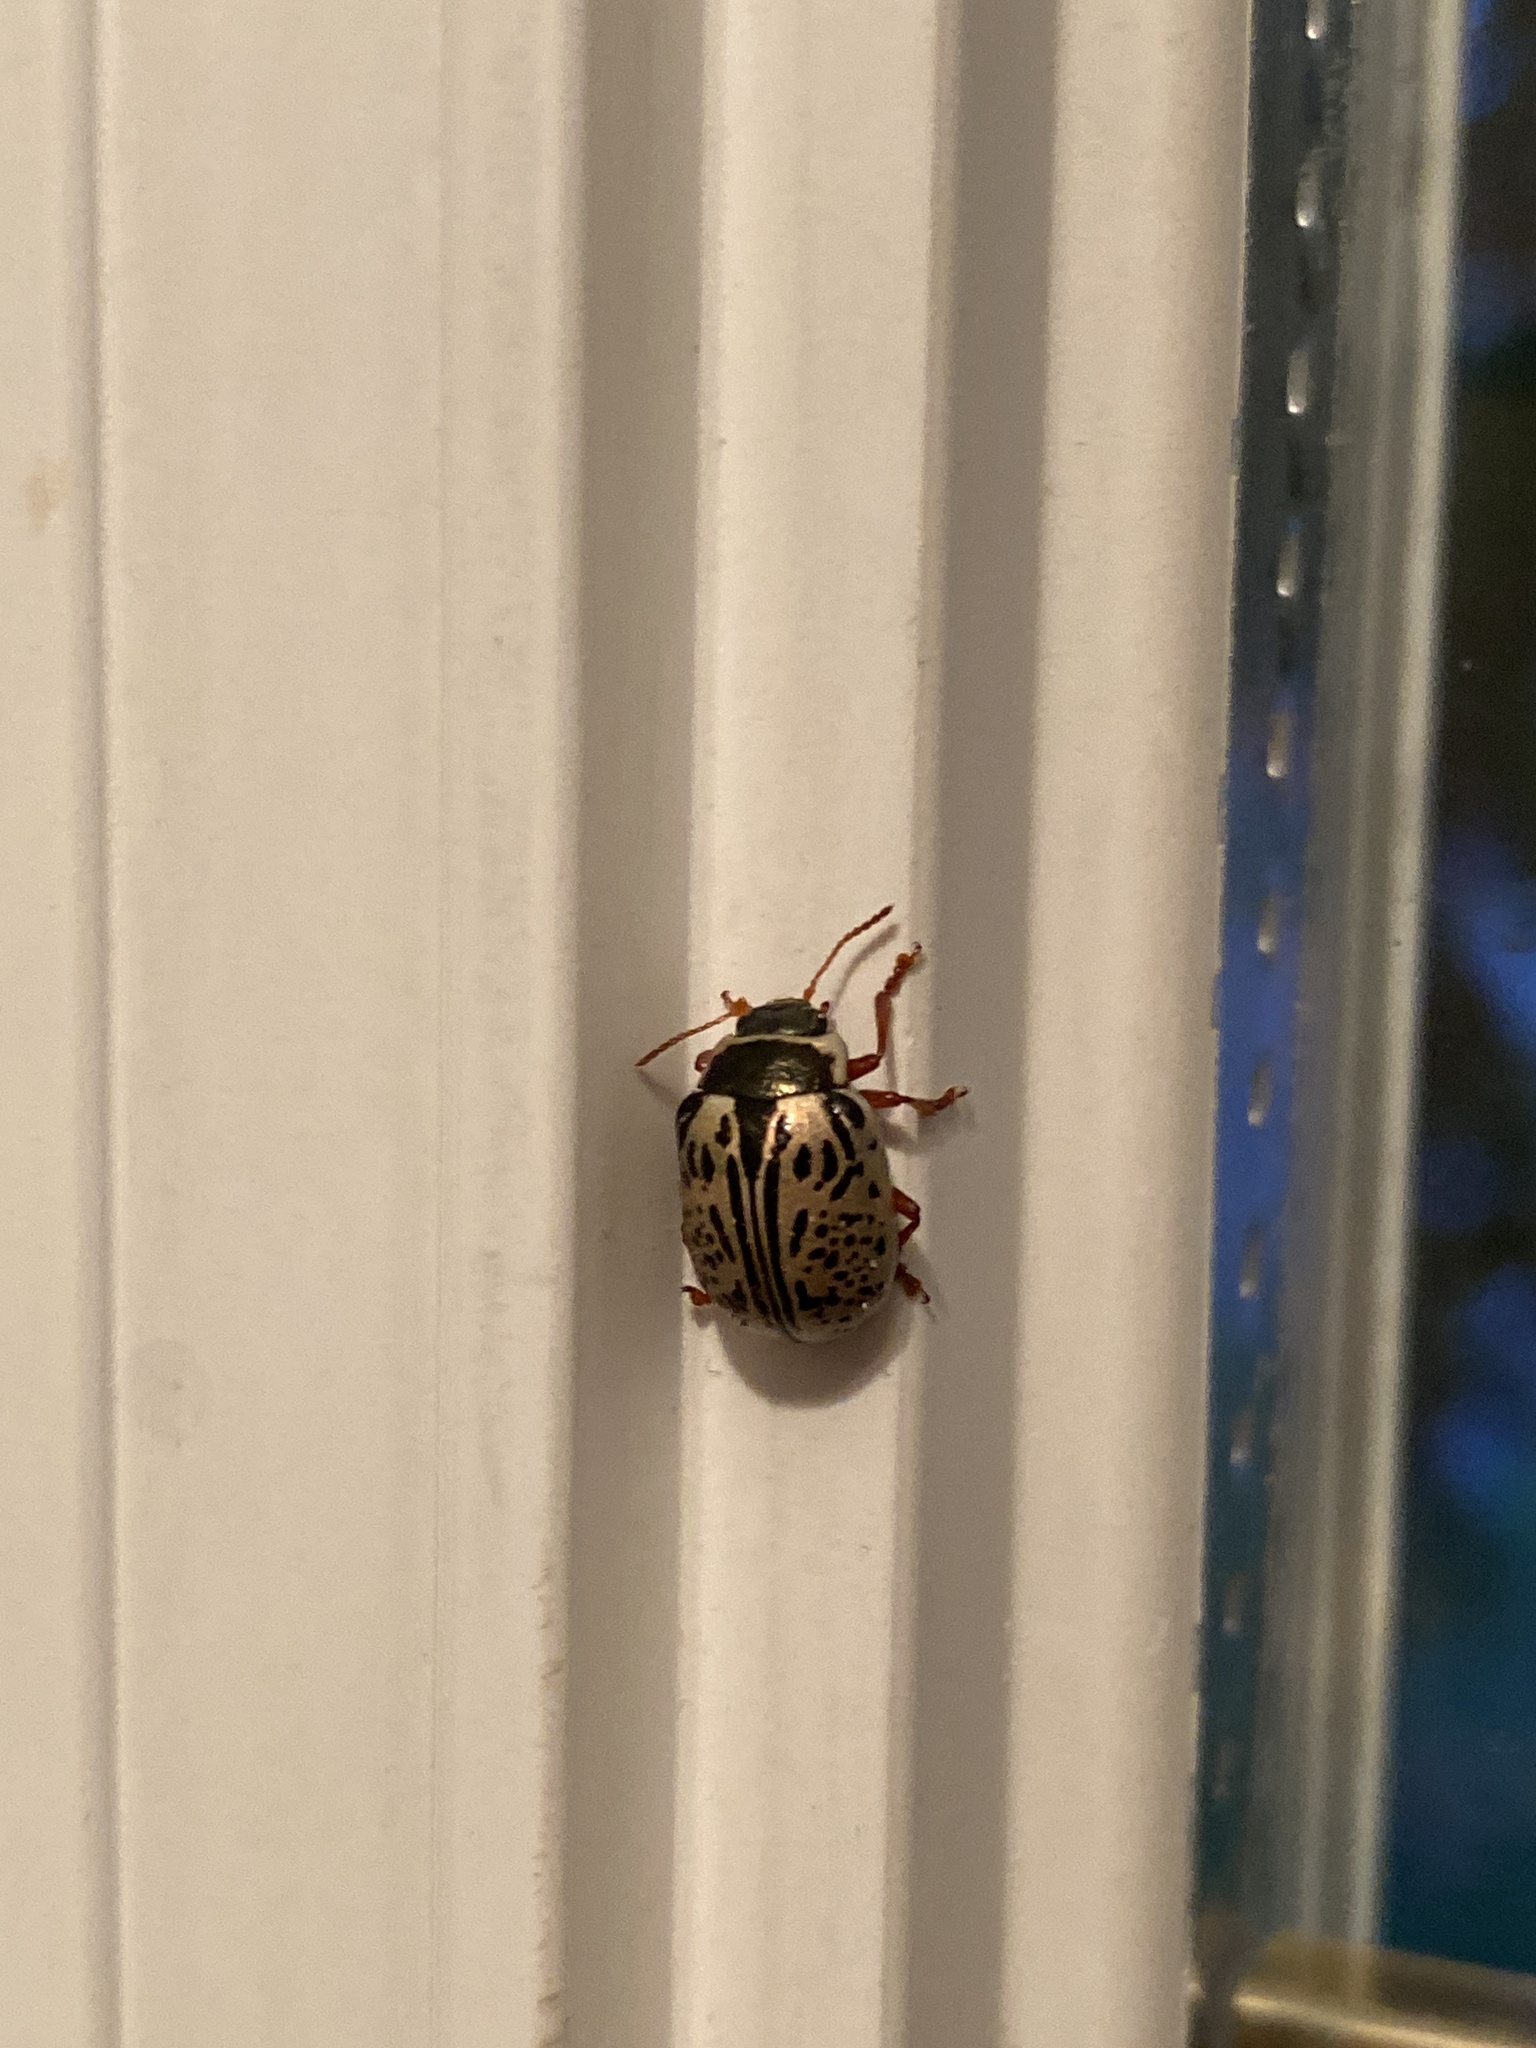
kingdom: Animalia
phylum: Arthropoda
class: Insecta
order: Coleoptera
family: Chrysomelidae
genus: Calligrapha
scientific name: Calligrapha multipunctata
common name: Common willow calligrapher beetle
